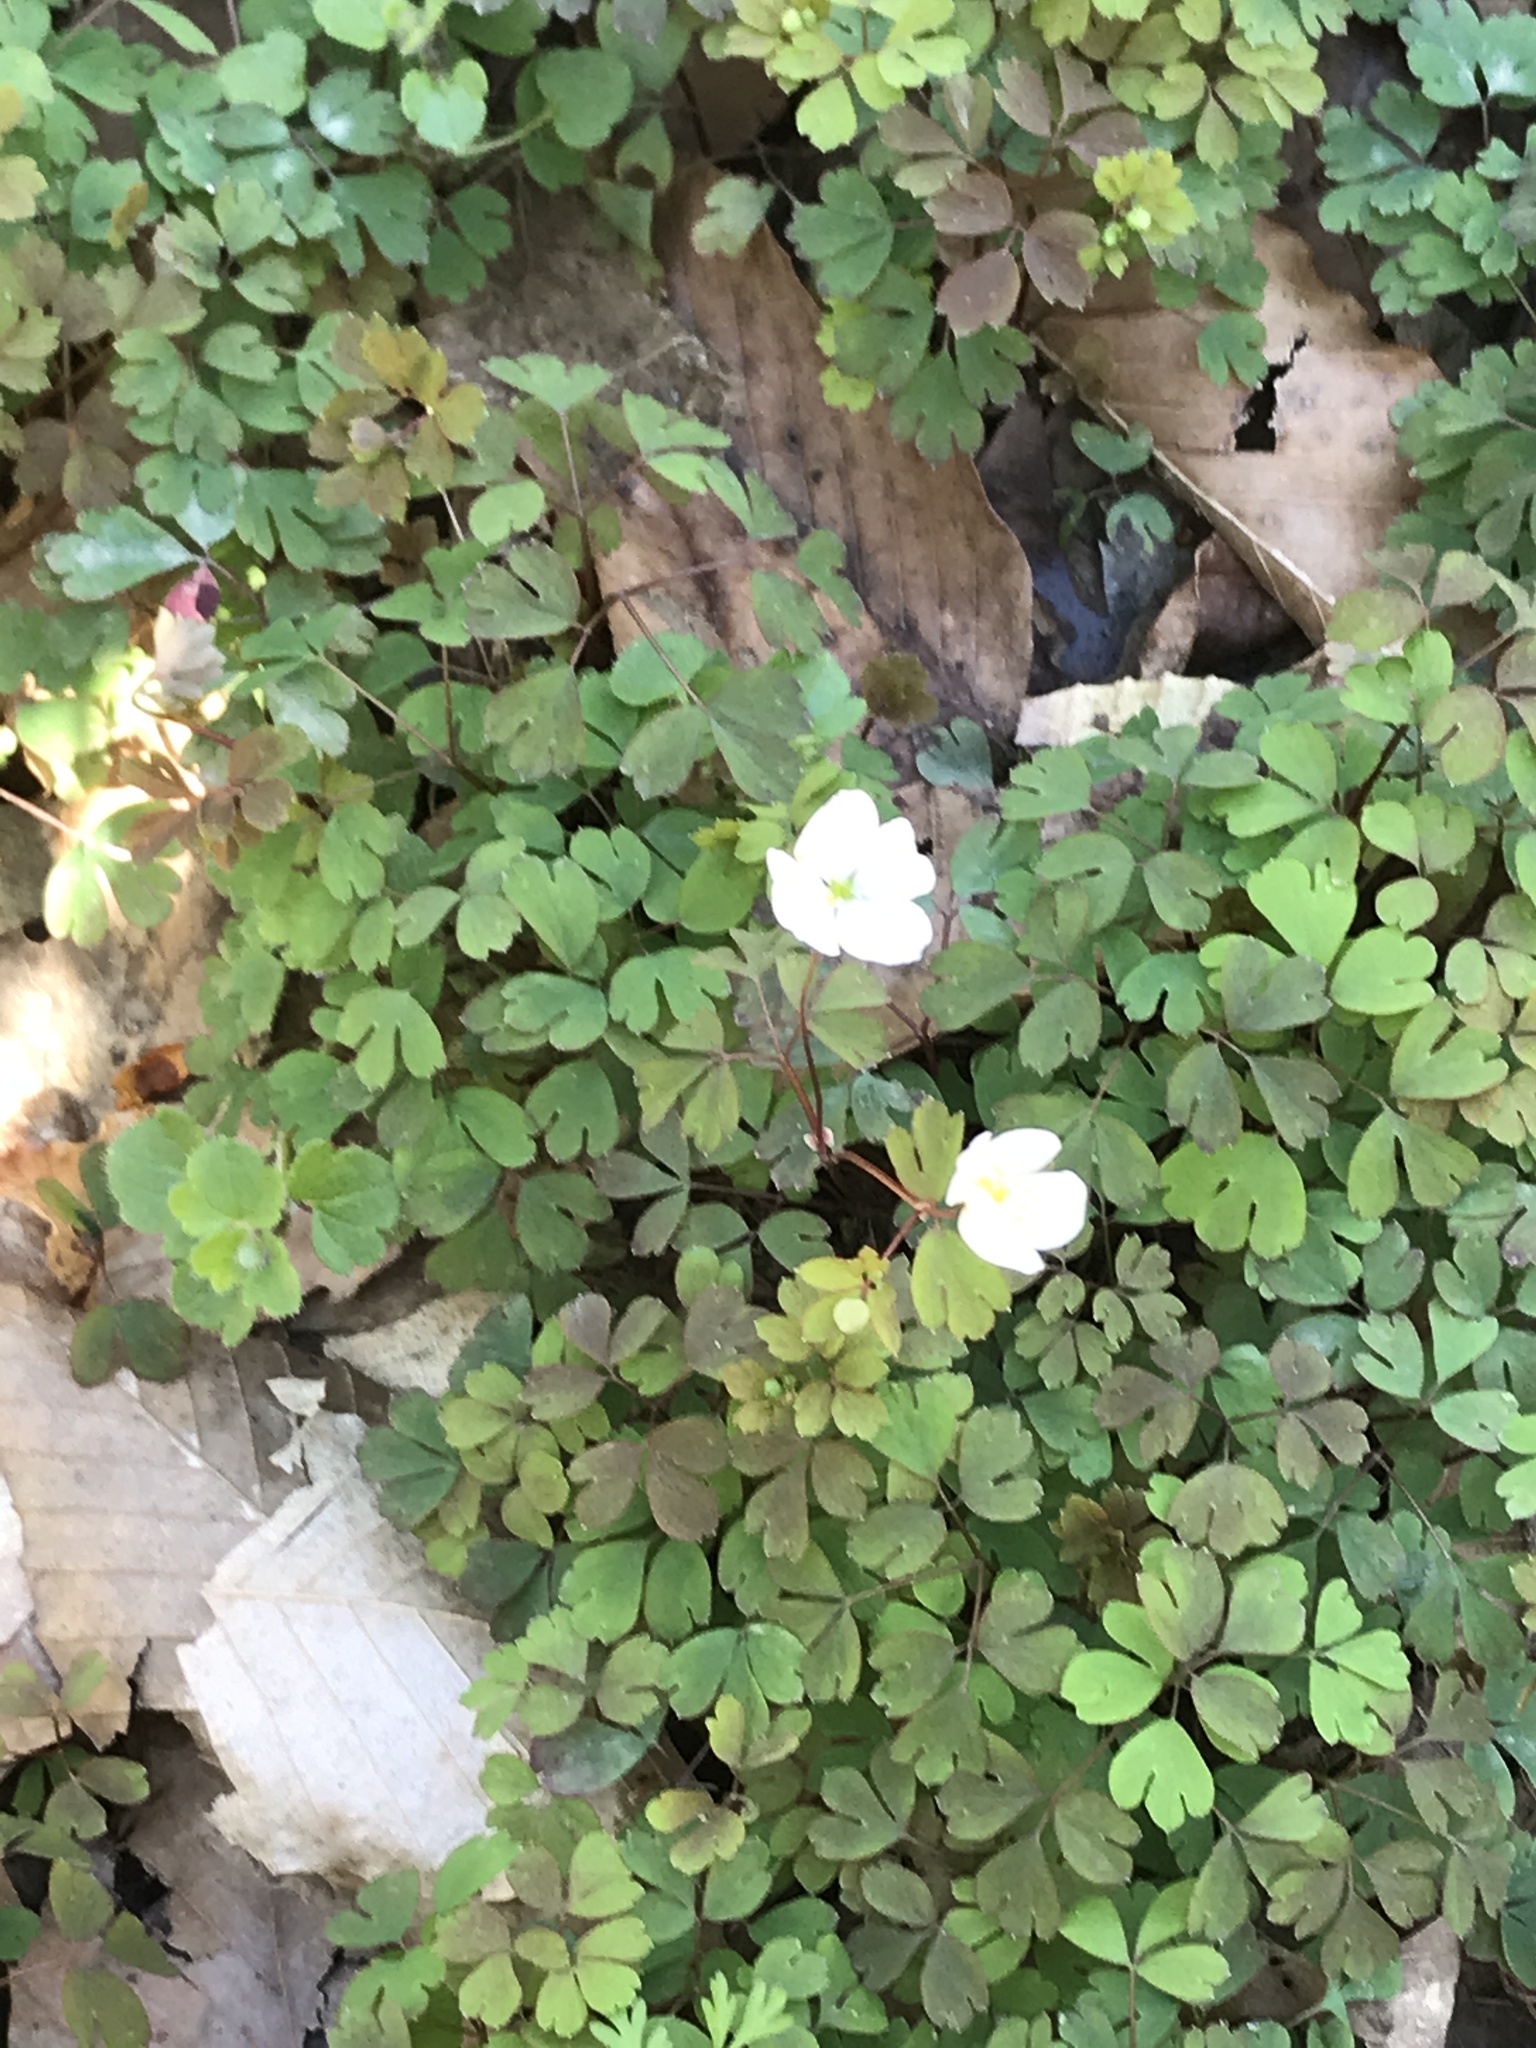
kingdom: Plantae
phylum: Tracheophyta
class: Magnoliopsida
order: Ranunculales
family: Ranunculaceae
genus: Enemion
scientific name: Enemion biternatum
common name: Eastern false rue-anemone
